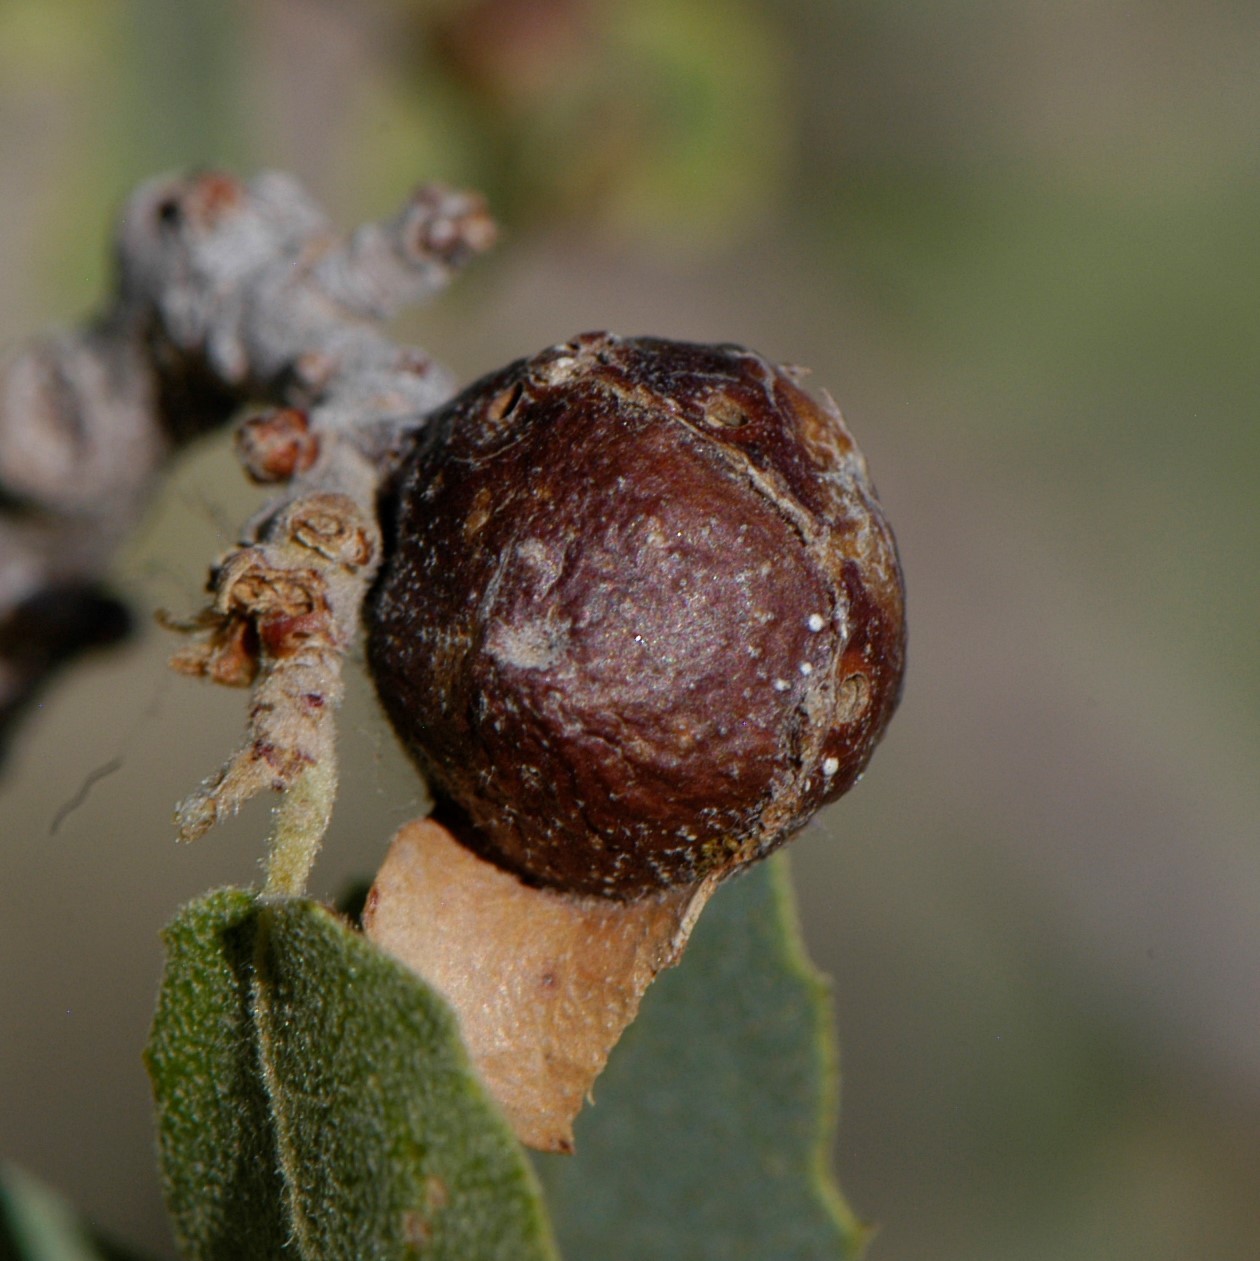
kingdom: Animalia
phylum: Arthropoda
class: Insecta
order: Hymenoptera
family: Cynipidae
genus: Andricus
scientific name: Andricus
